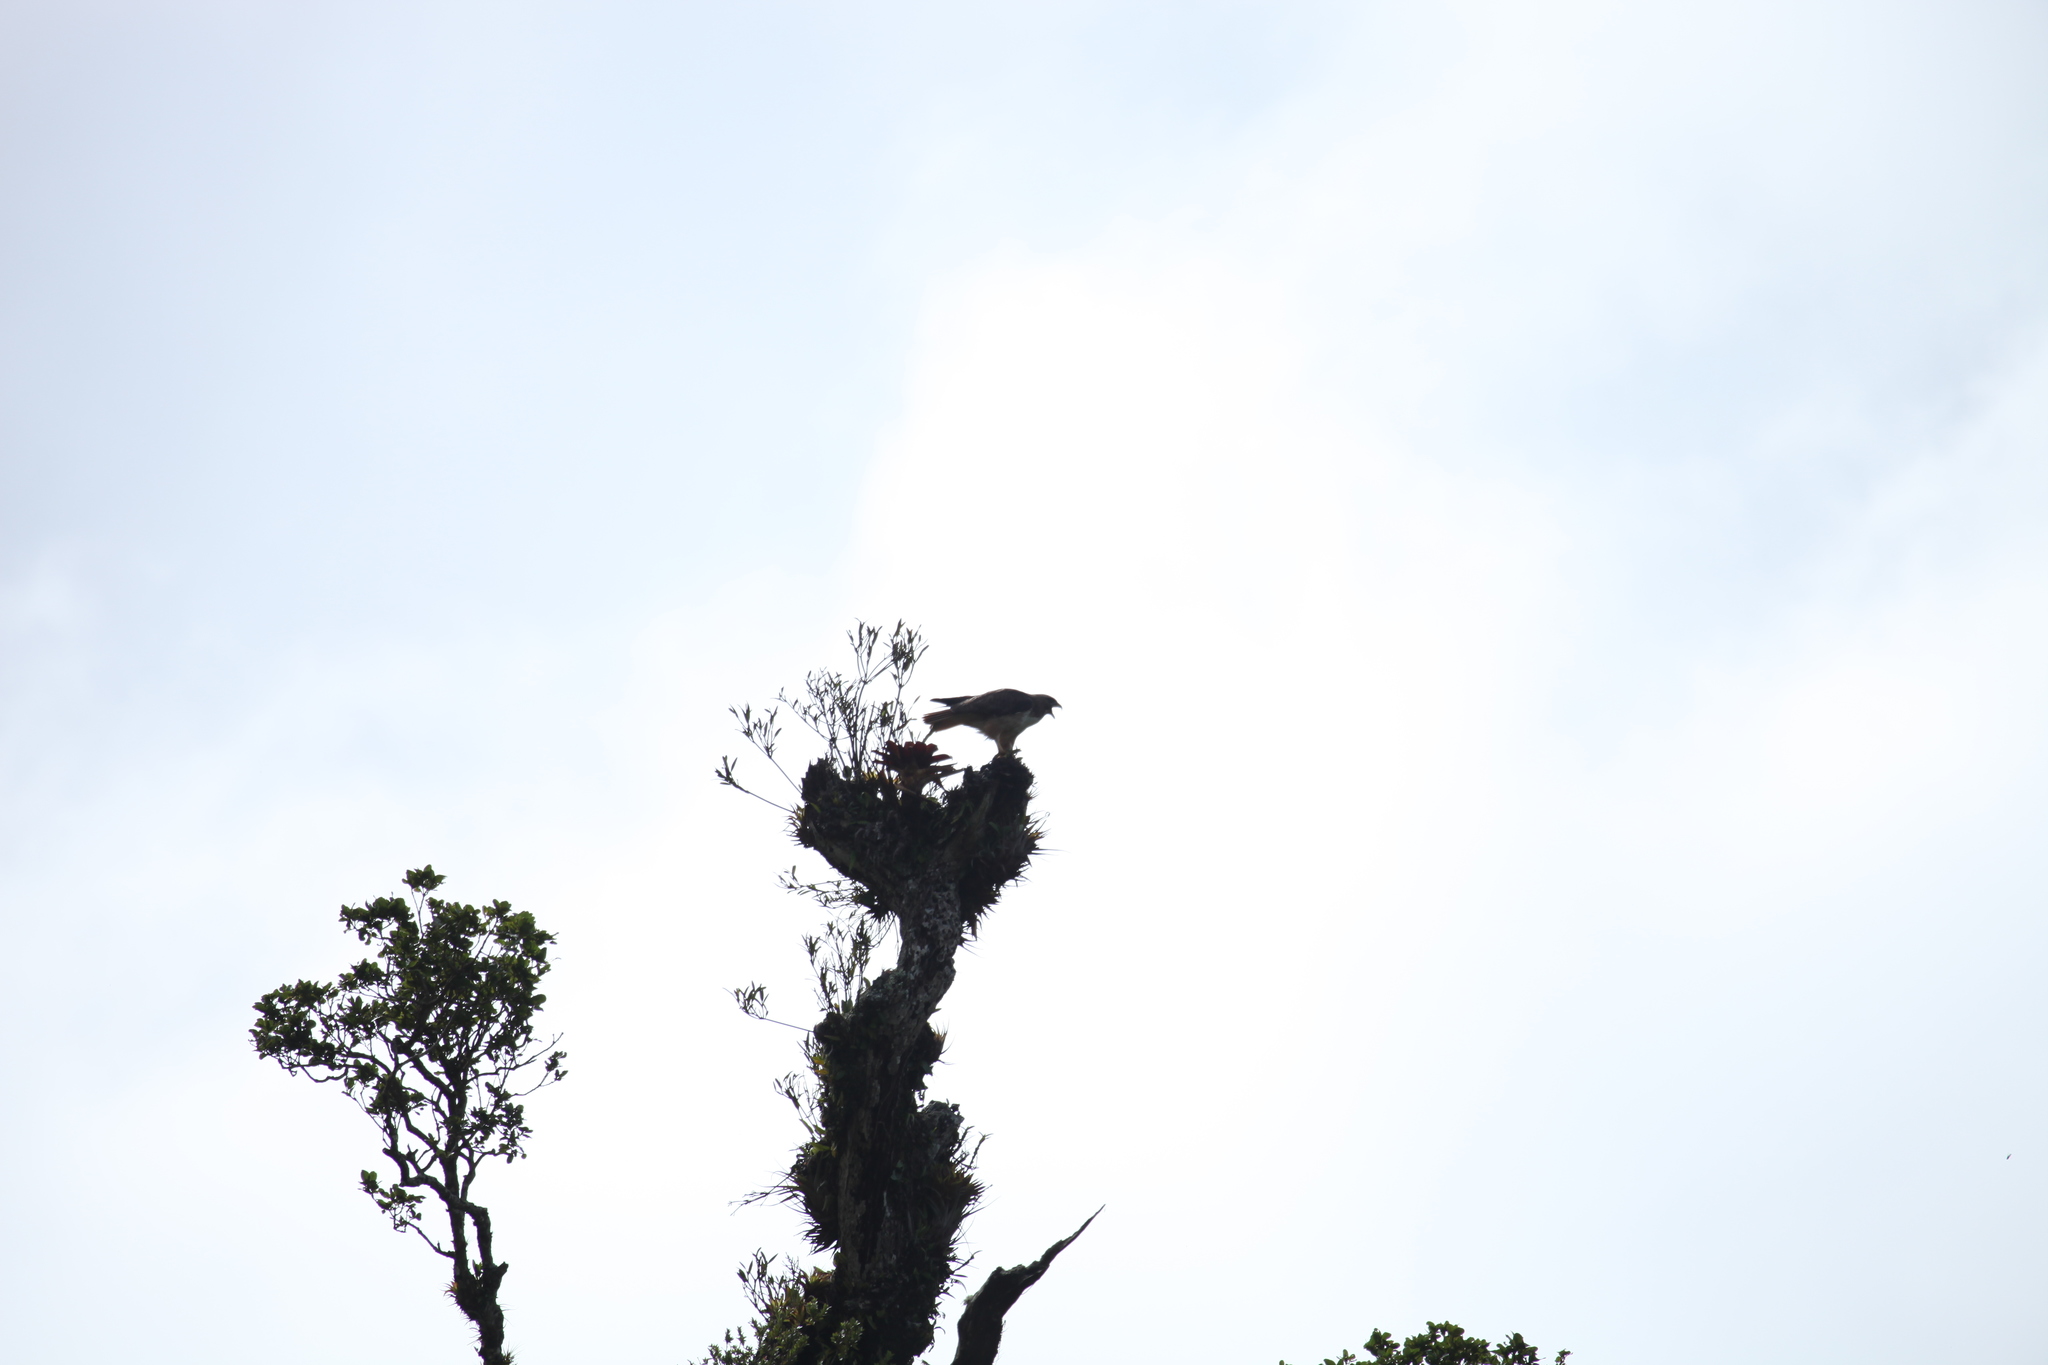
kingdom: Animalia
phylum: Chordata
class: Aves
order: Accipitriformes
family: Accipitridae
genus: Buteo
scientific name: Buteo jamaicensis
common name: Red-tailed hawk
